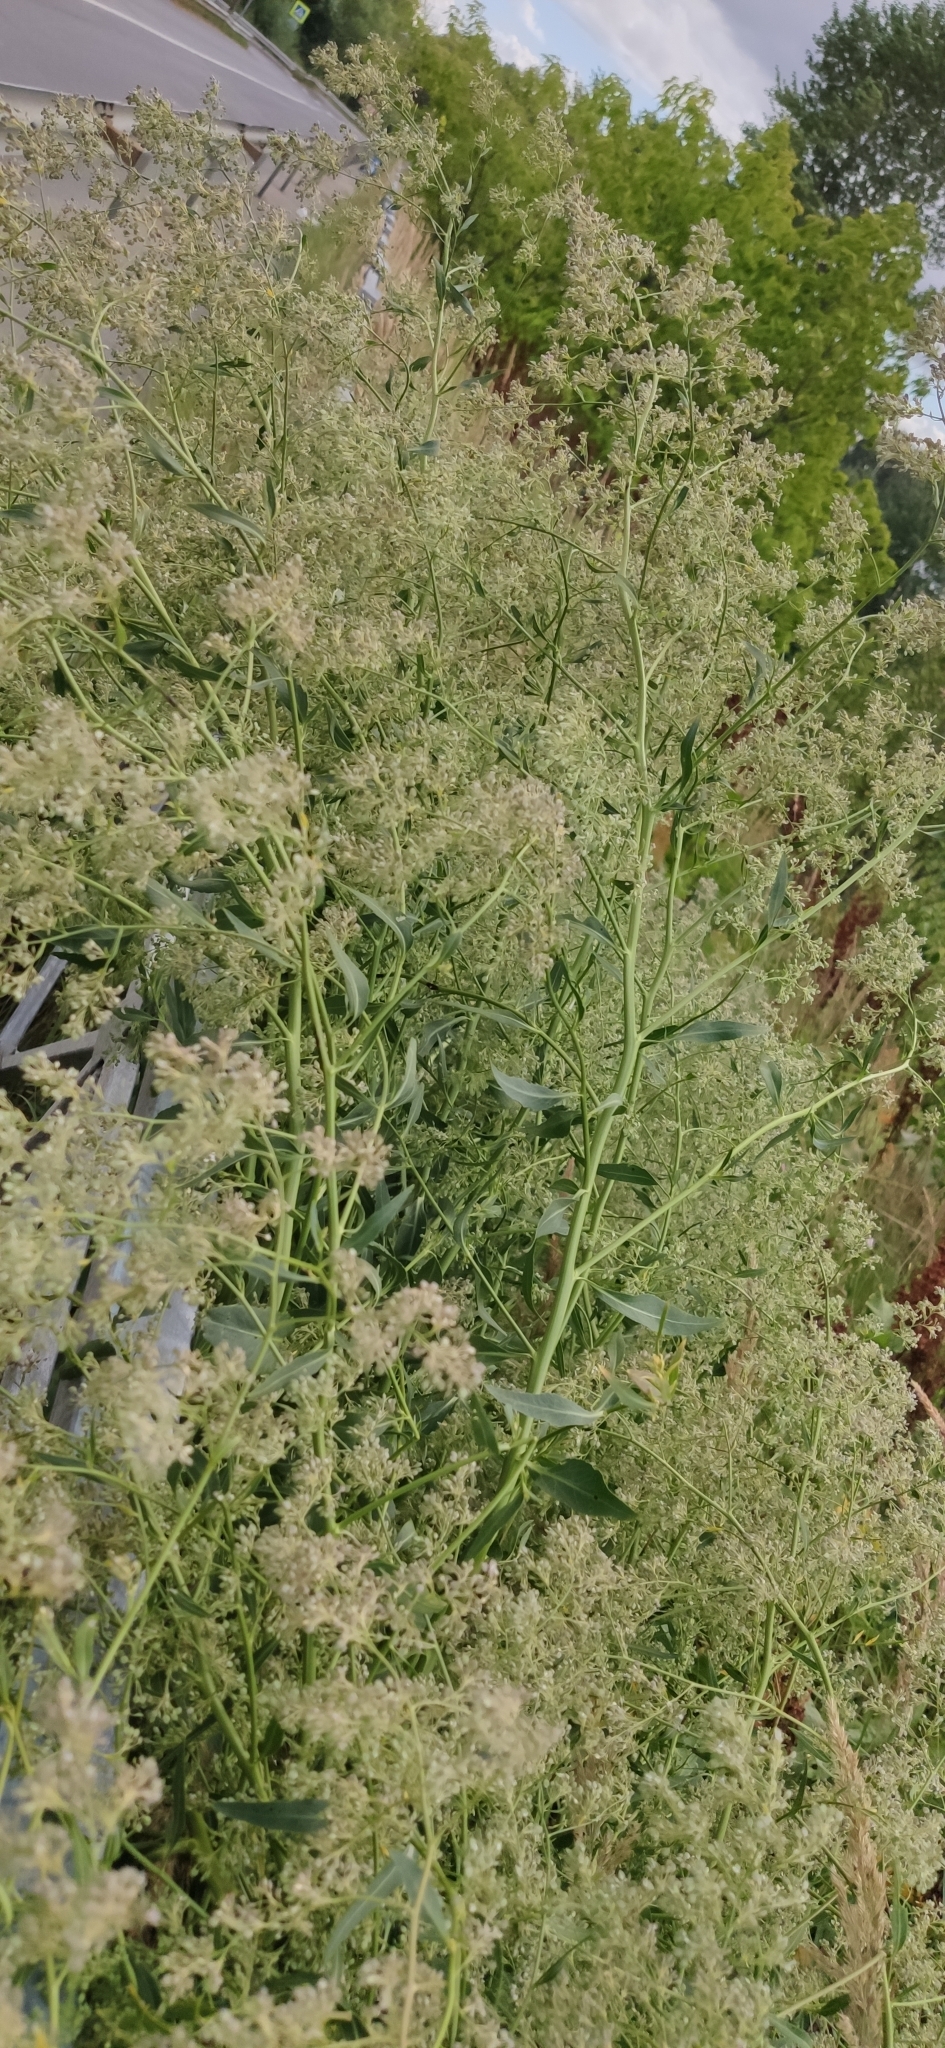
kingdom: Plantae
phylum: Tracheophyta
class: Magnoliopsida
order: Brassicales
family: Brassicaceae
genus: Lepidium
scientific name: Lepidium latifolium
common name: Dittander
